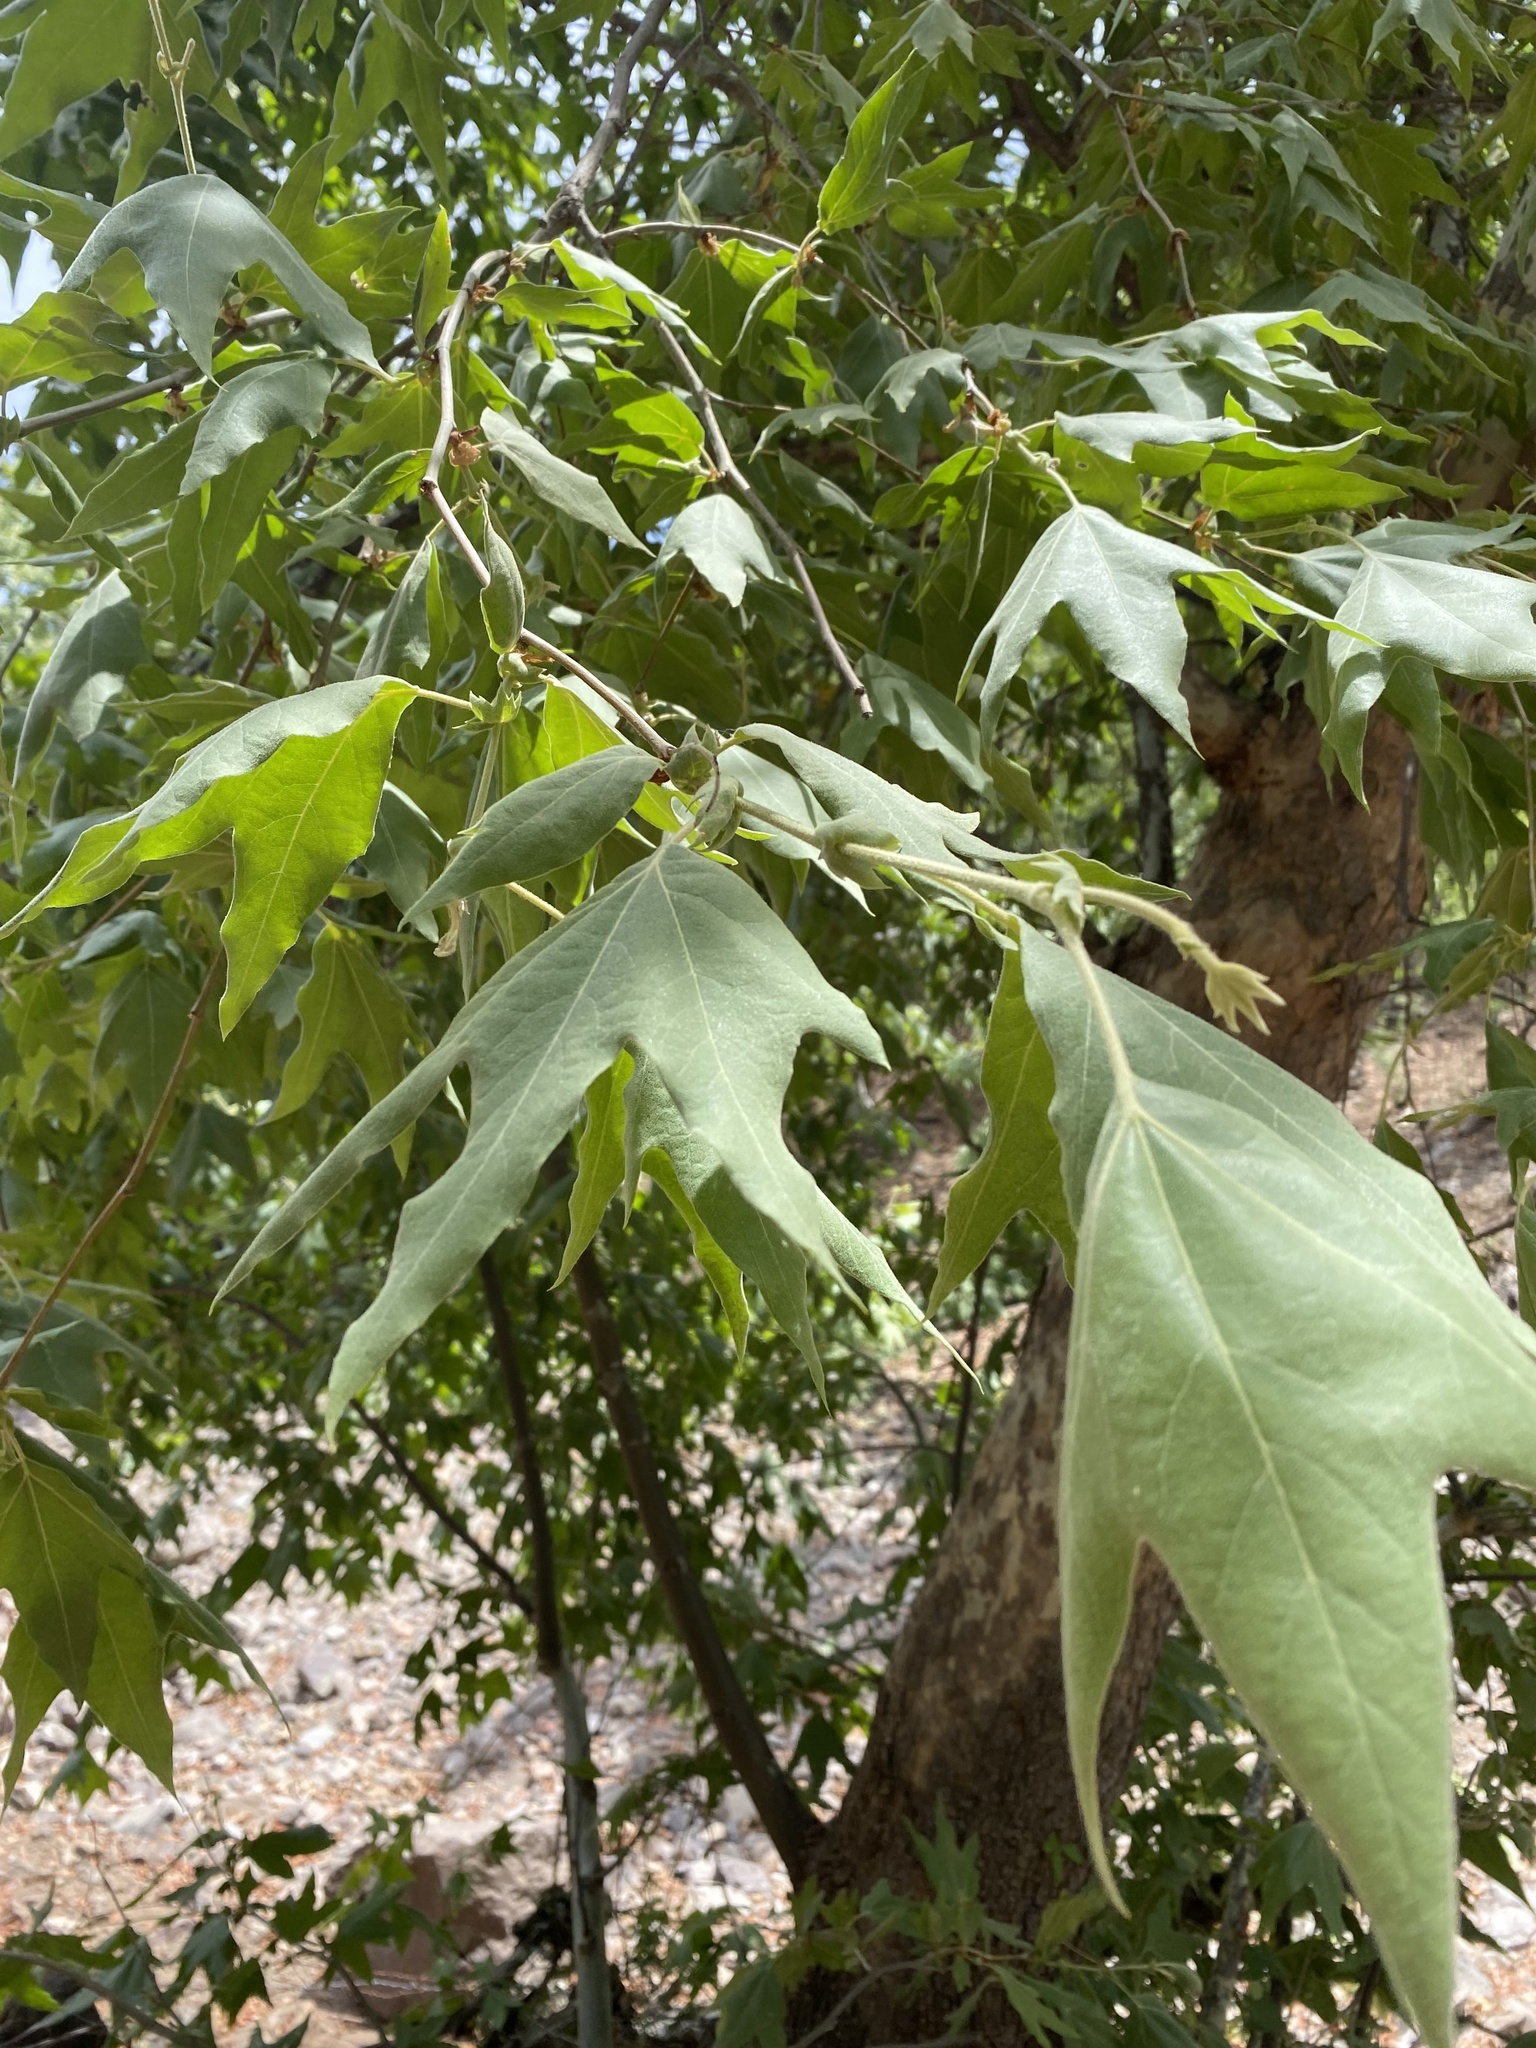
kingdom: Plantae
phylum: Tracheophyta
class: Magnoliopsida
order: Proteales
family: Platanaceae
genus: Platanus
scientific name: Platanus wrightii
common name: Arizona sycamore
